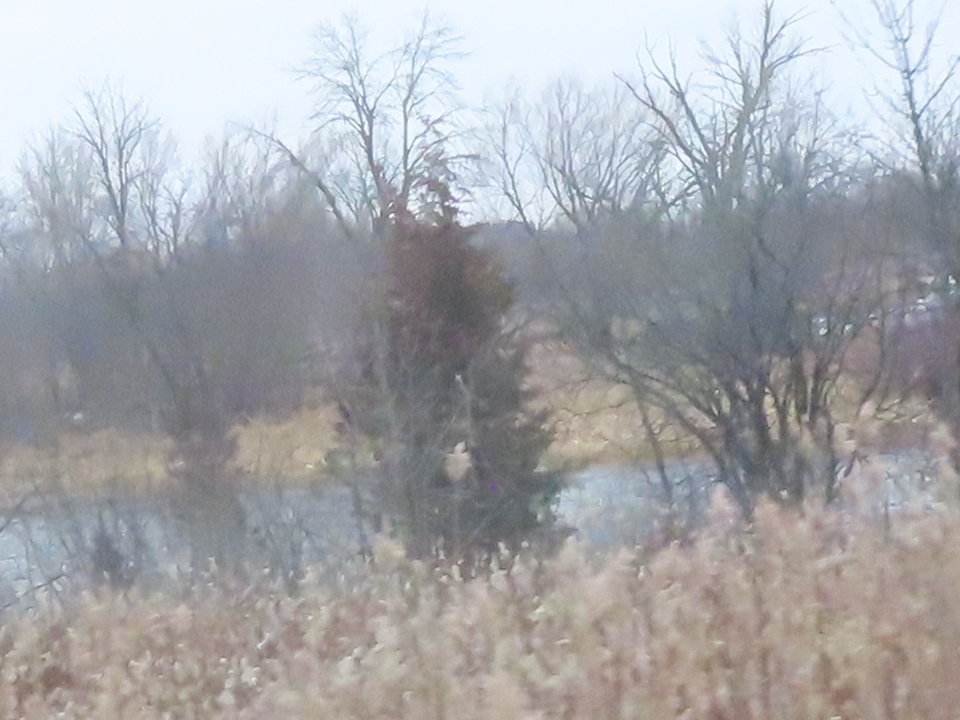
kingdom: Plantae
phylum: Tracheophyta
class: Pinopsida
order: Pinales
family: Cupressaceae
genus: Juniperus
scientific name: Juniperus virginiana
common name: Red juniper
